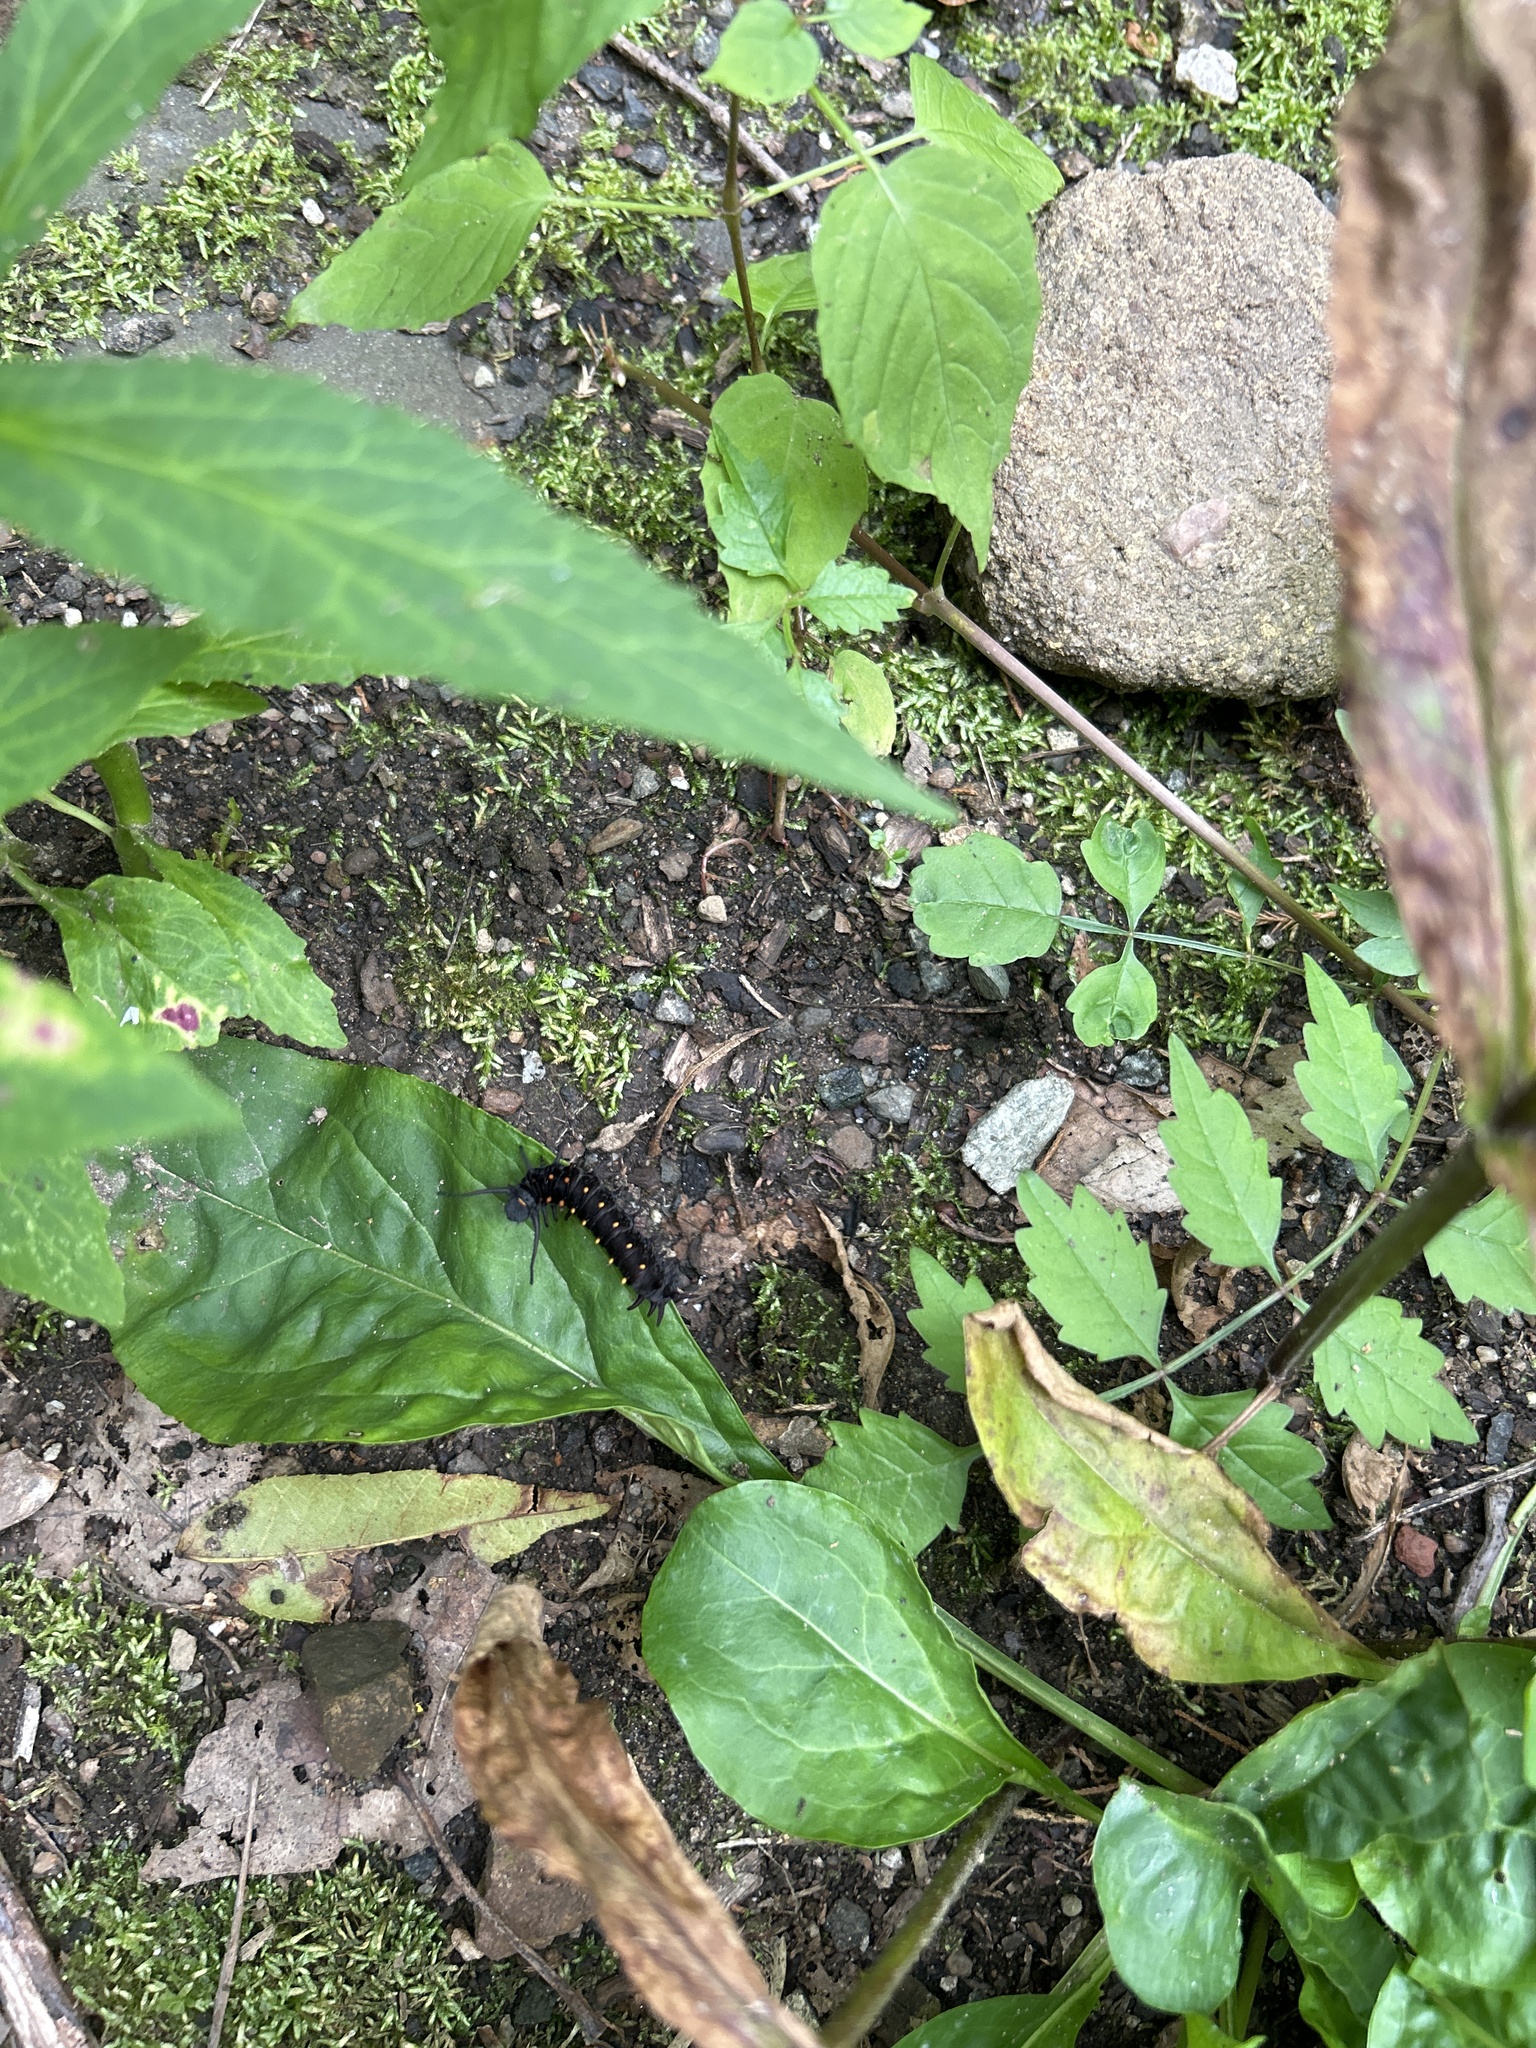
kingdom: Animalia
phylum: Arthropoda
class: Insecta
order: Lepidoptera
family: Papilionidae
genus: Battus
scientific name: Battus philenor
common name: Pipevine swallowtail
